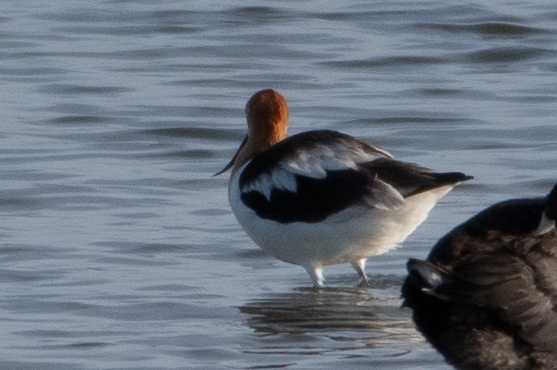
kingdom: Animalia
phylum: Chordata
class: Aves
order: Charadriiformes
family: Recurvirostridae
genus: Recurvirostra
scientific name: Recurvirostra americana
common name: American avocet
